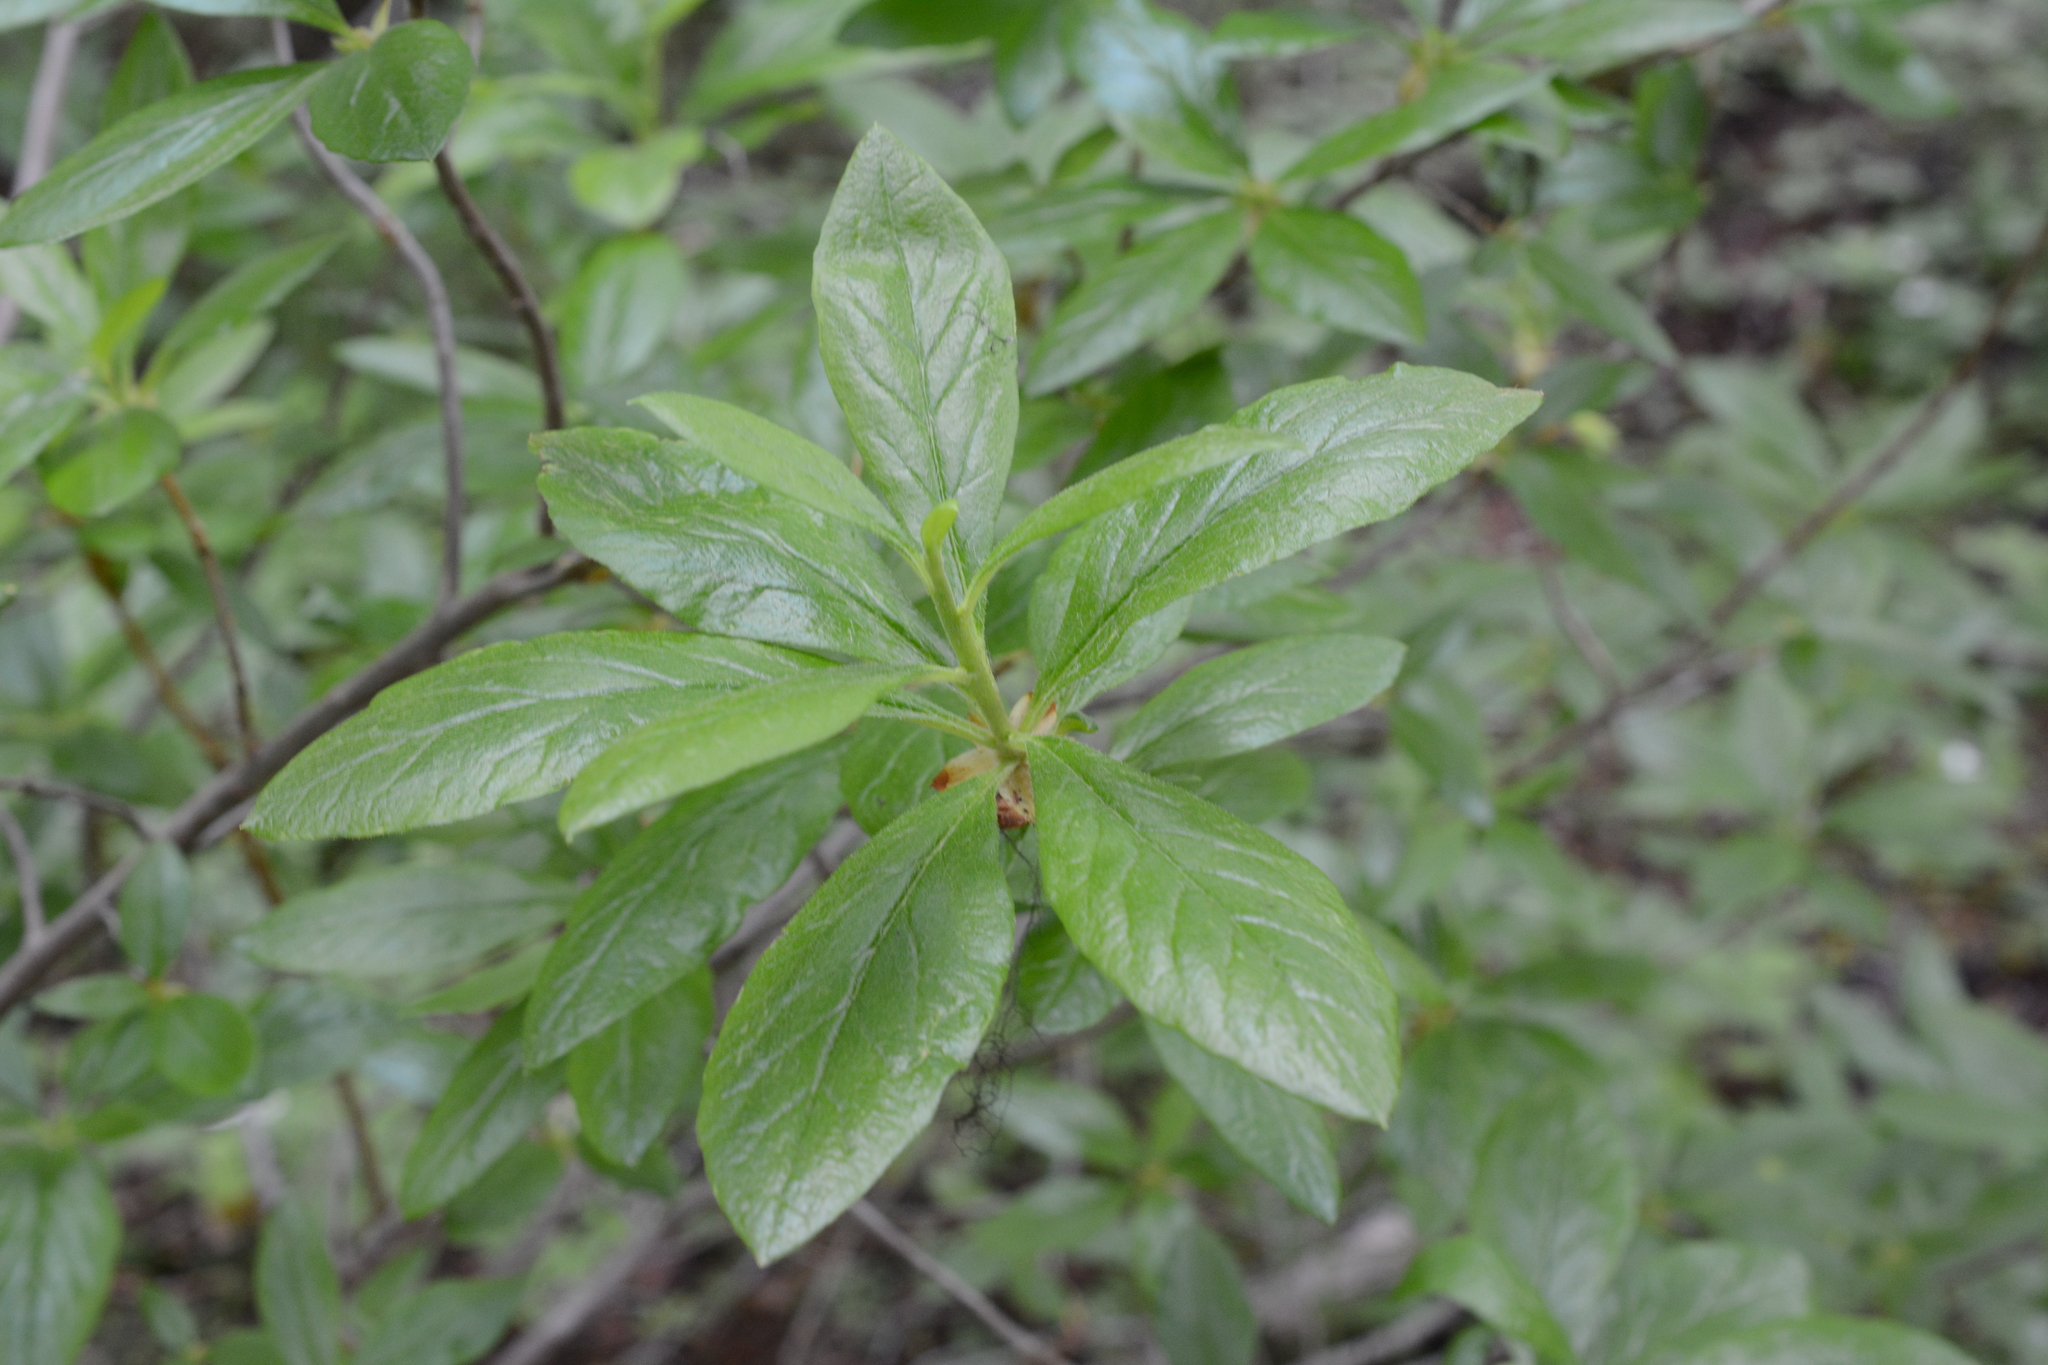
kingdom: Plantae
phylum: Tracheophyta
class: Magnoliopsida
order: Ericales
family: Ericaceae
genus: Rhododendron
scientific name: Rhododendron albiflorum
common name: White rhododendron
